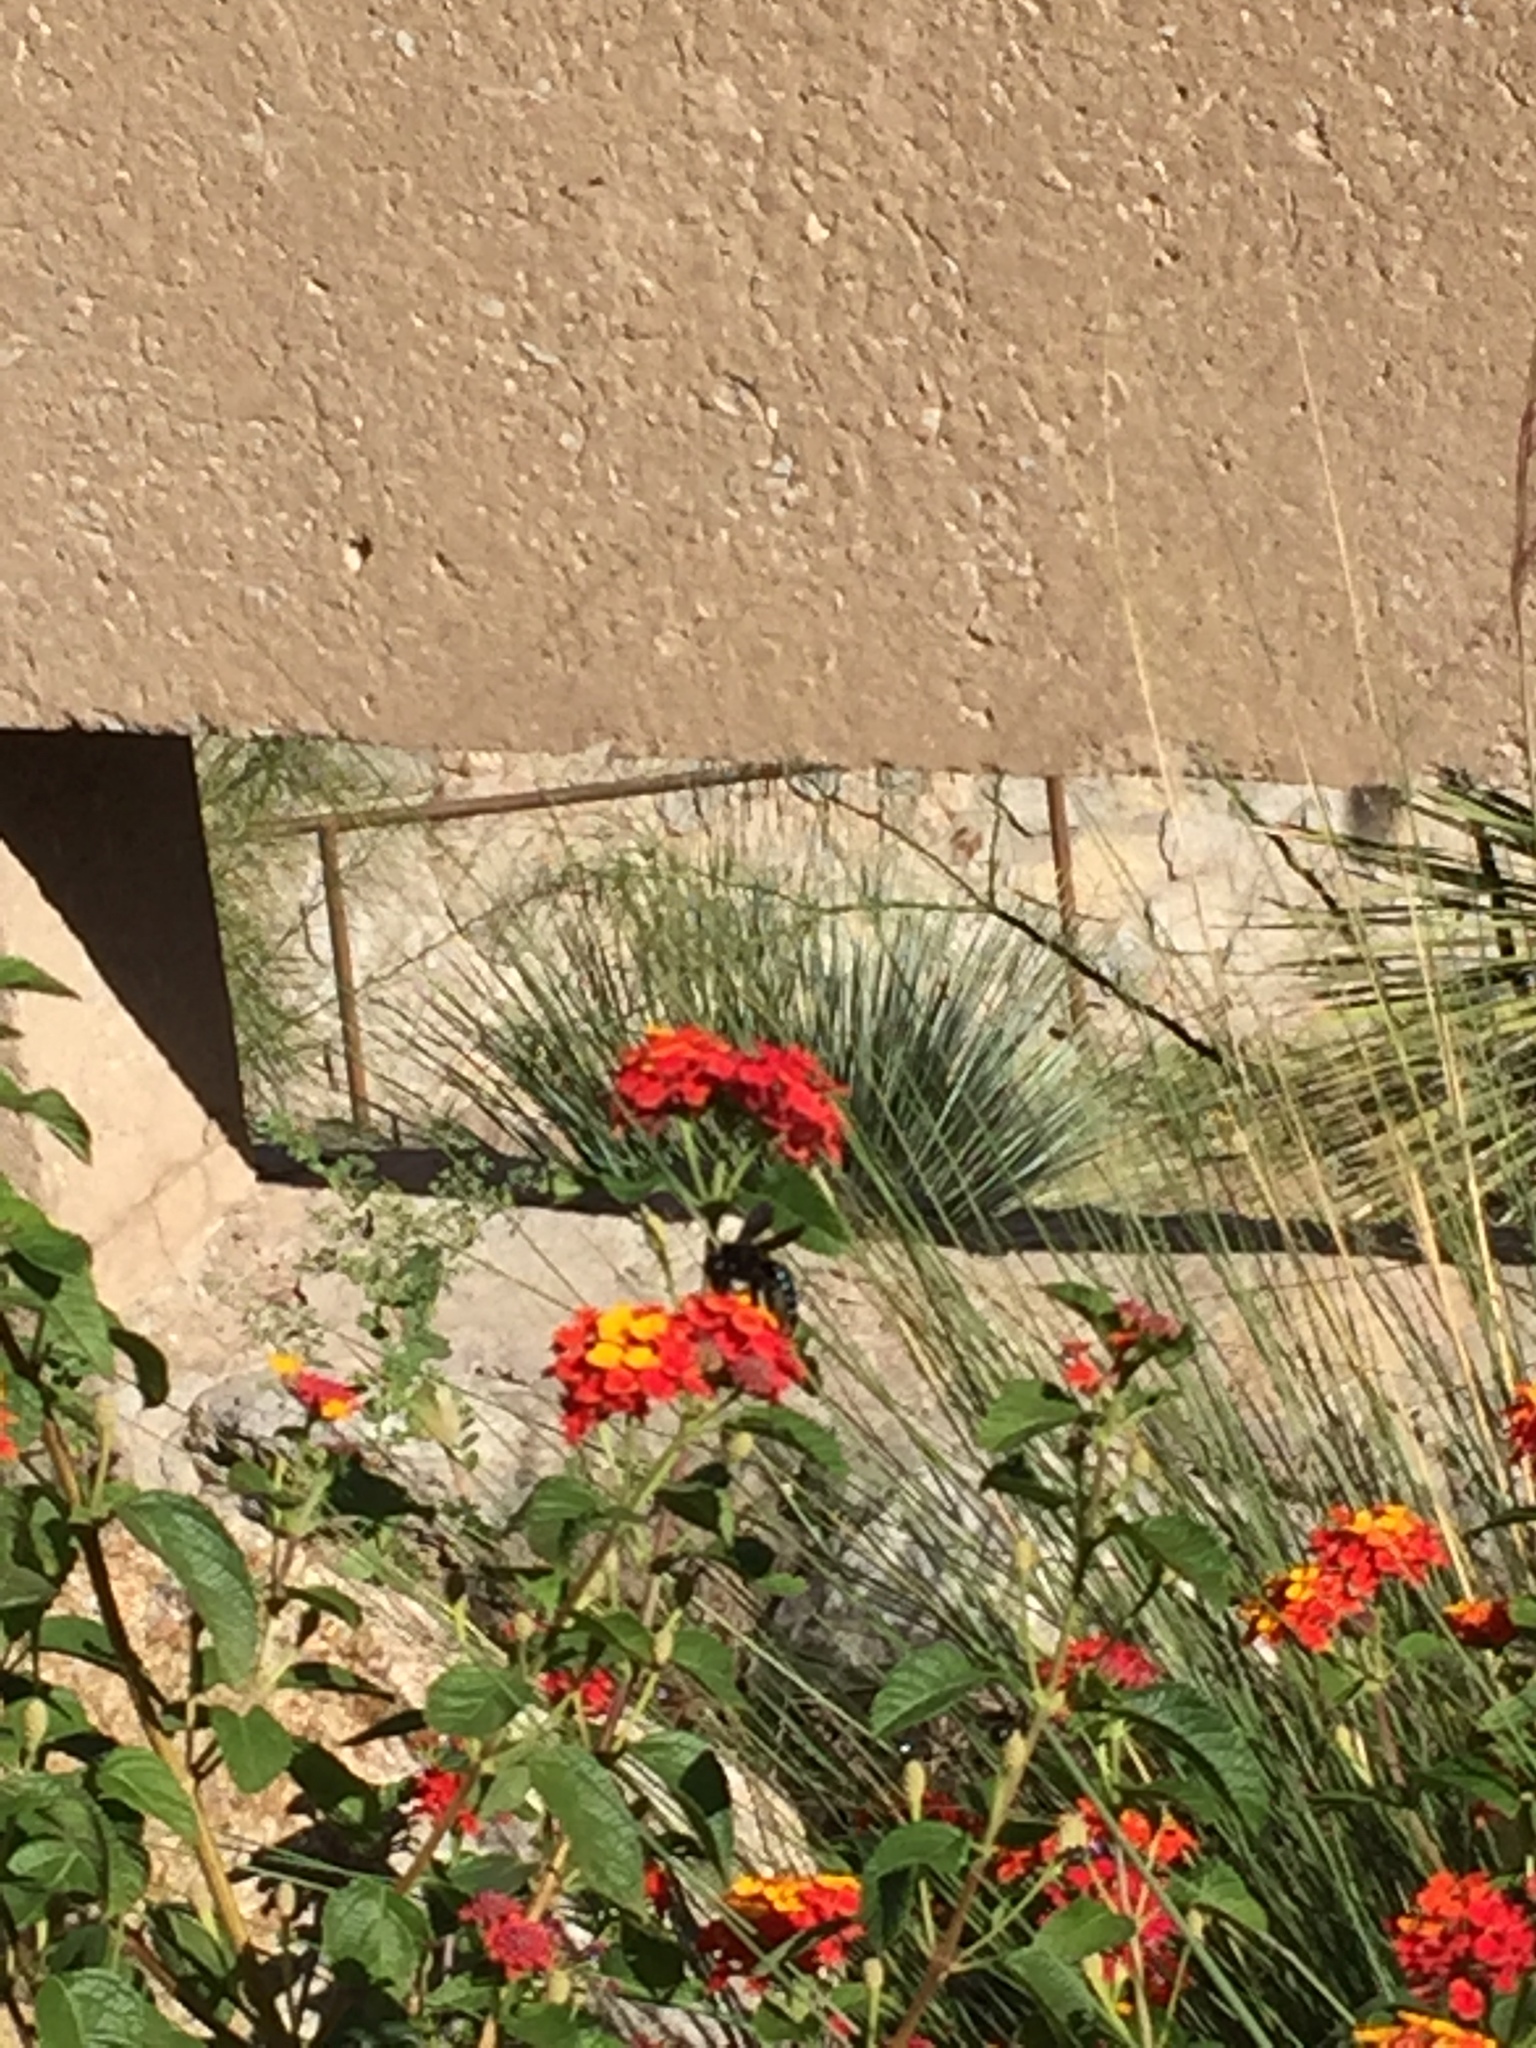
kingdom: Animalia
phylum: Arthropoda
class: Insecta
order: Hymenoptera
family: Apidae
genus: Xylocopa
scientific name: Xylocopa
